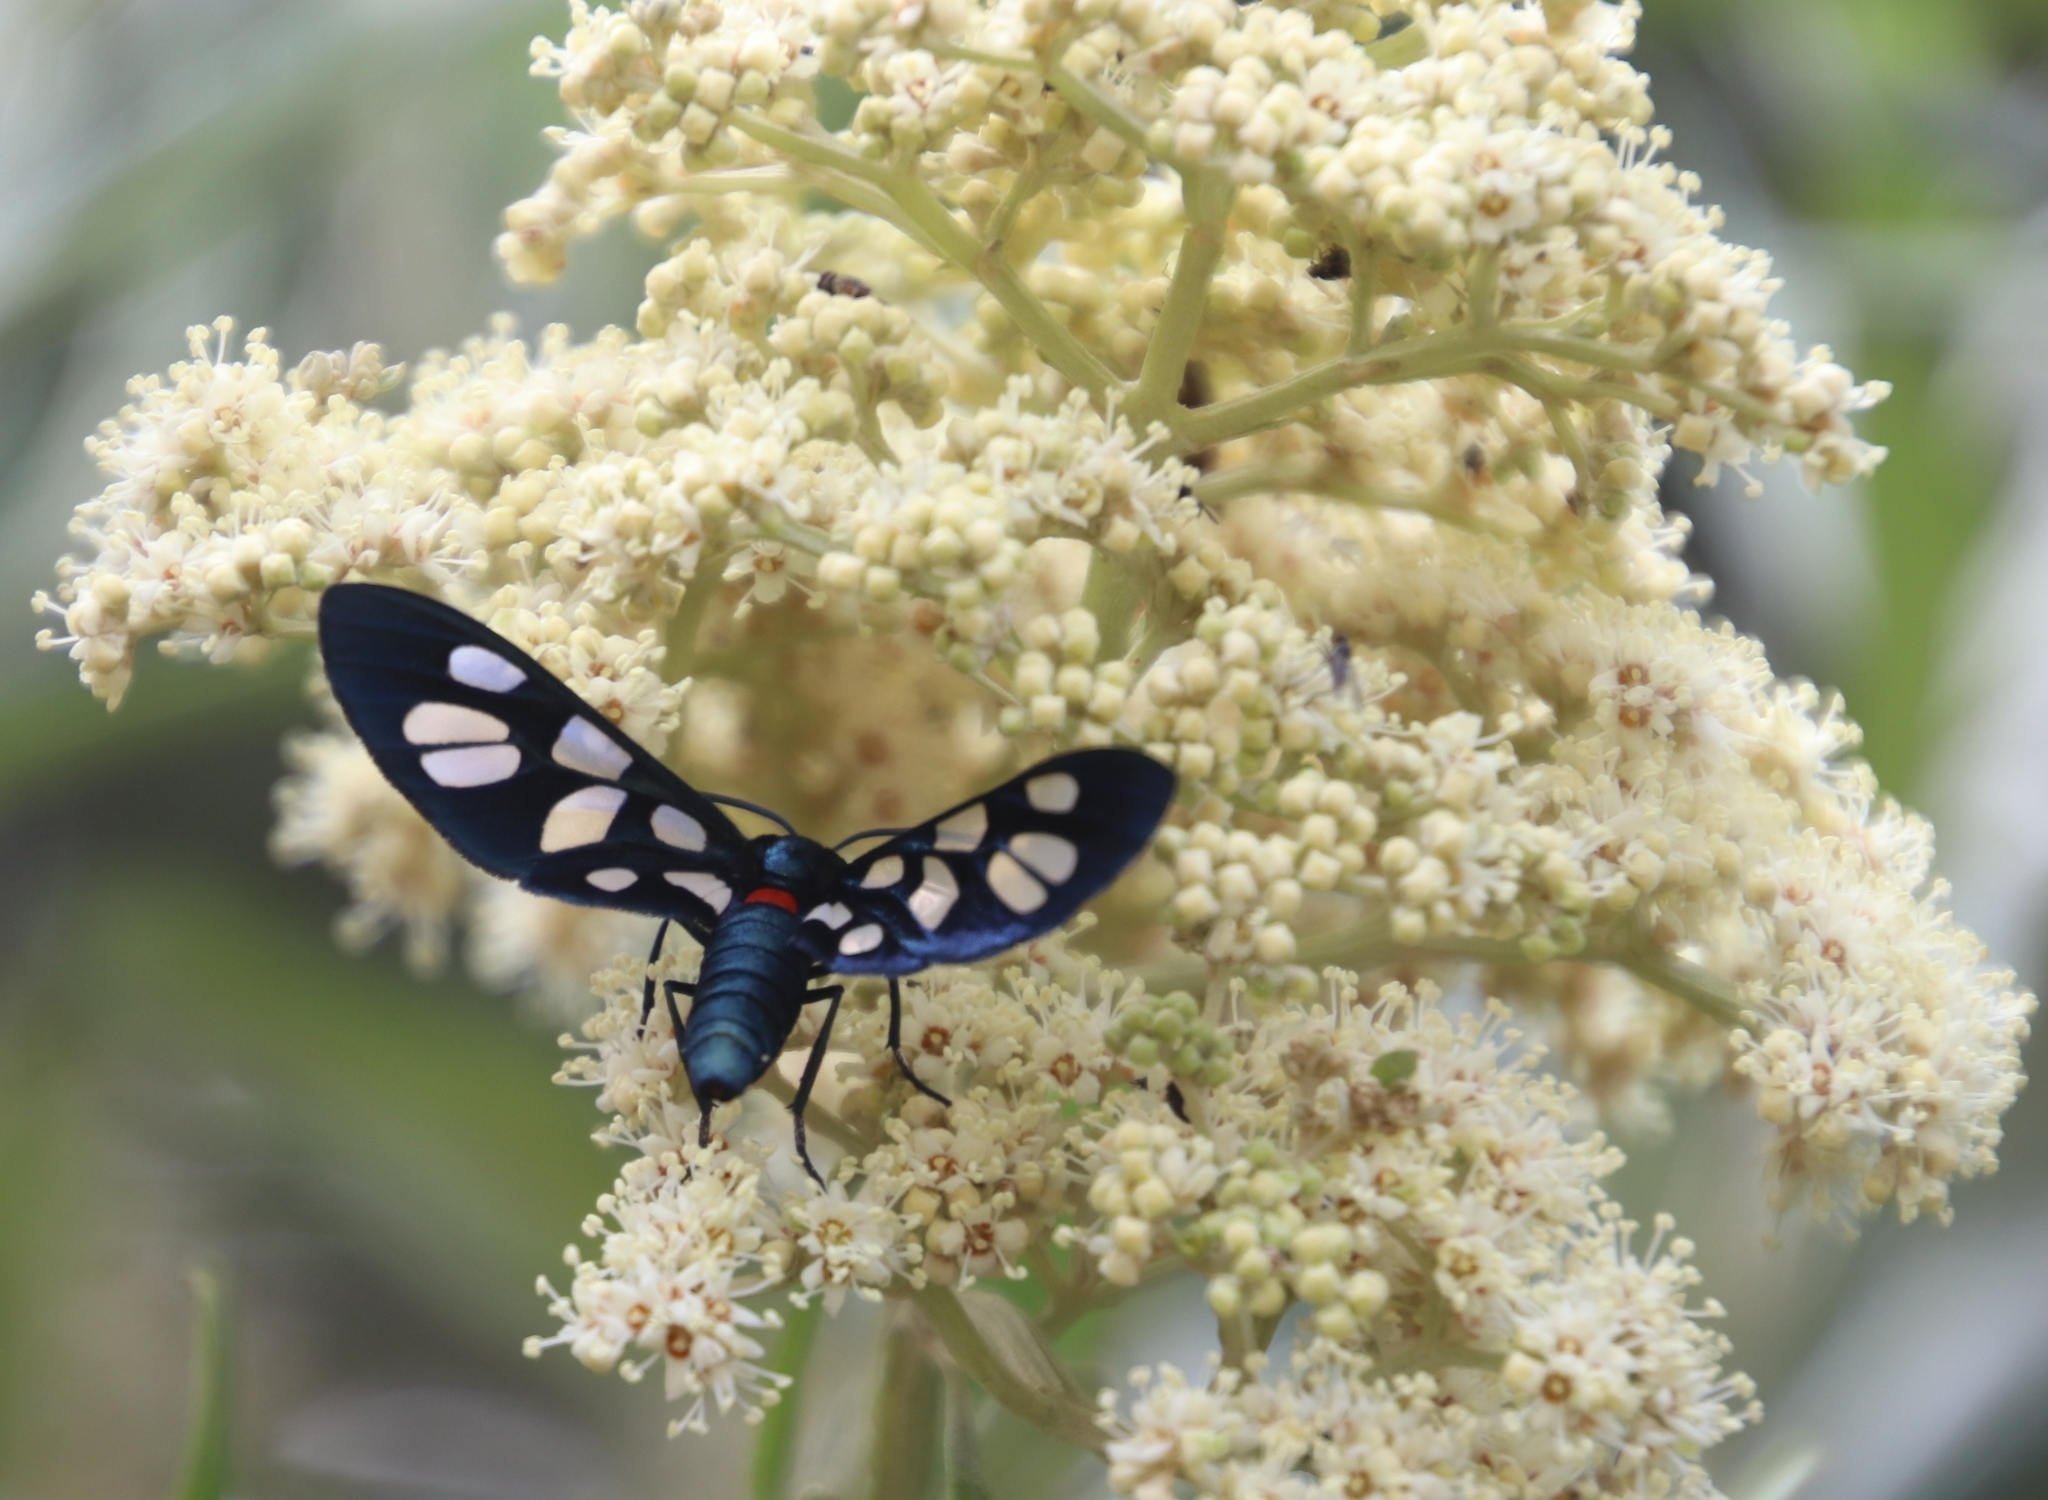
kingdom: Animalia
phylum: Arthropoda
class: Insecta
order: Lepidoptera
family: Erebidae
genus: Amata
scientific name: Amata kuhlweini
